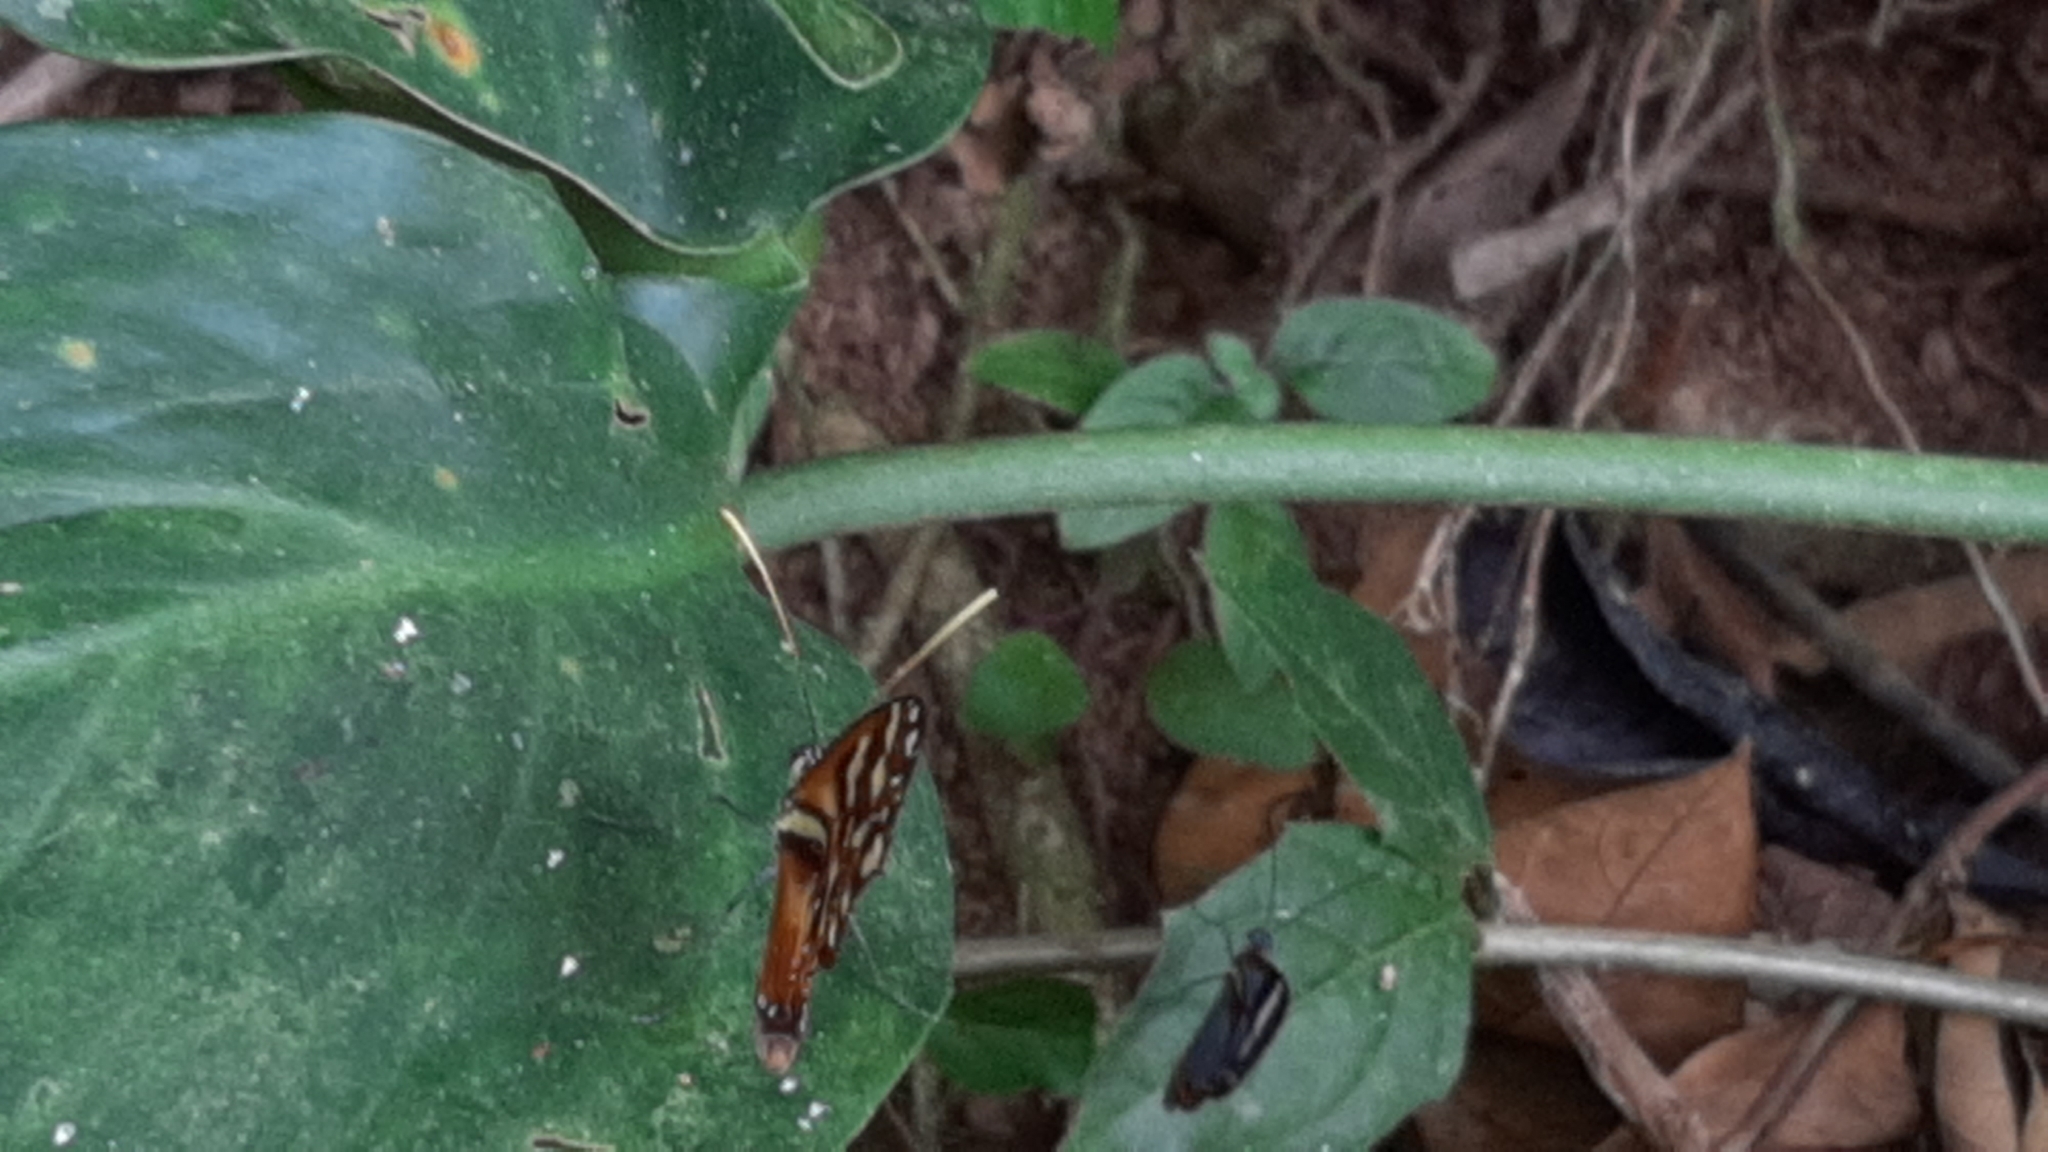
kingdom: Animalia
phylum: Arthropoda
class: Insecta
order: Lepidoptera
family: Nymphalidae
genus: Ithomia
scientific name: Ithomia heraldica
